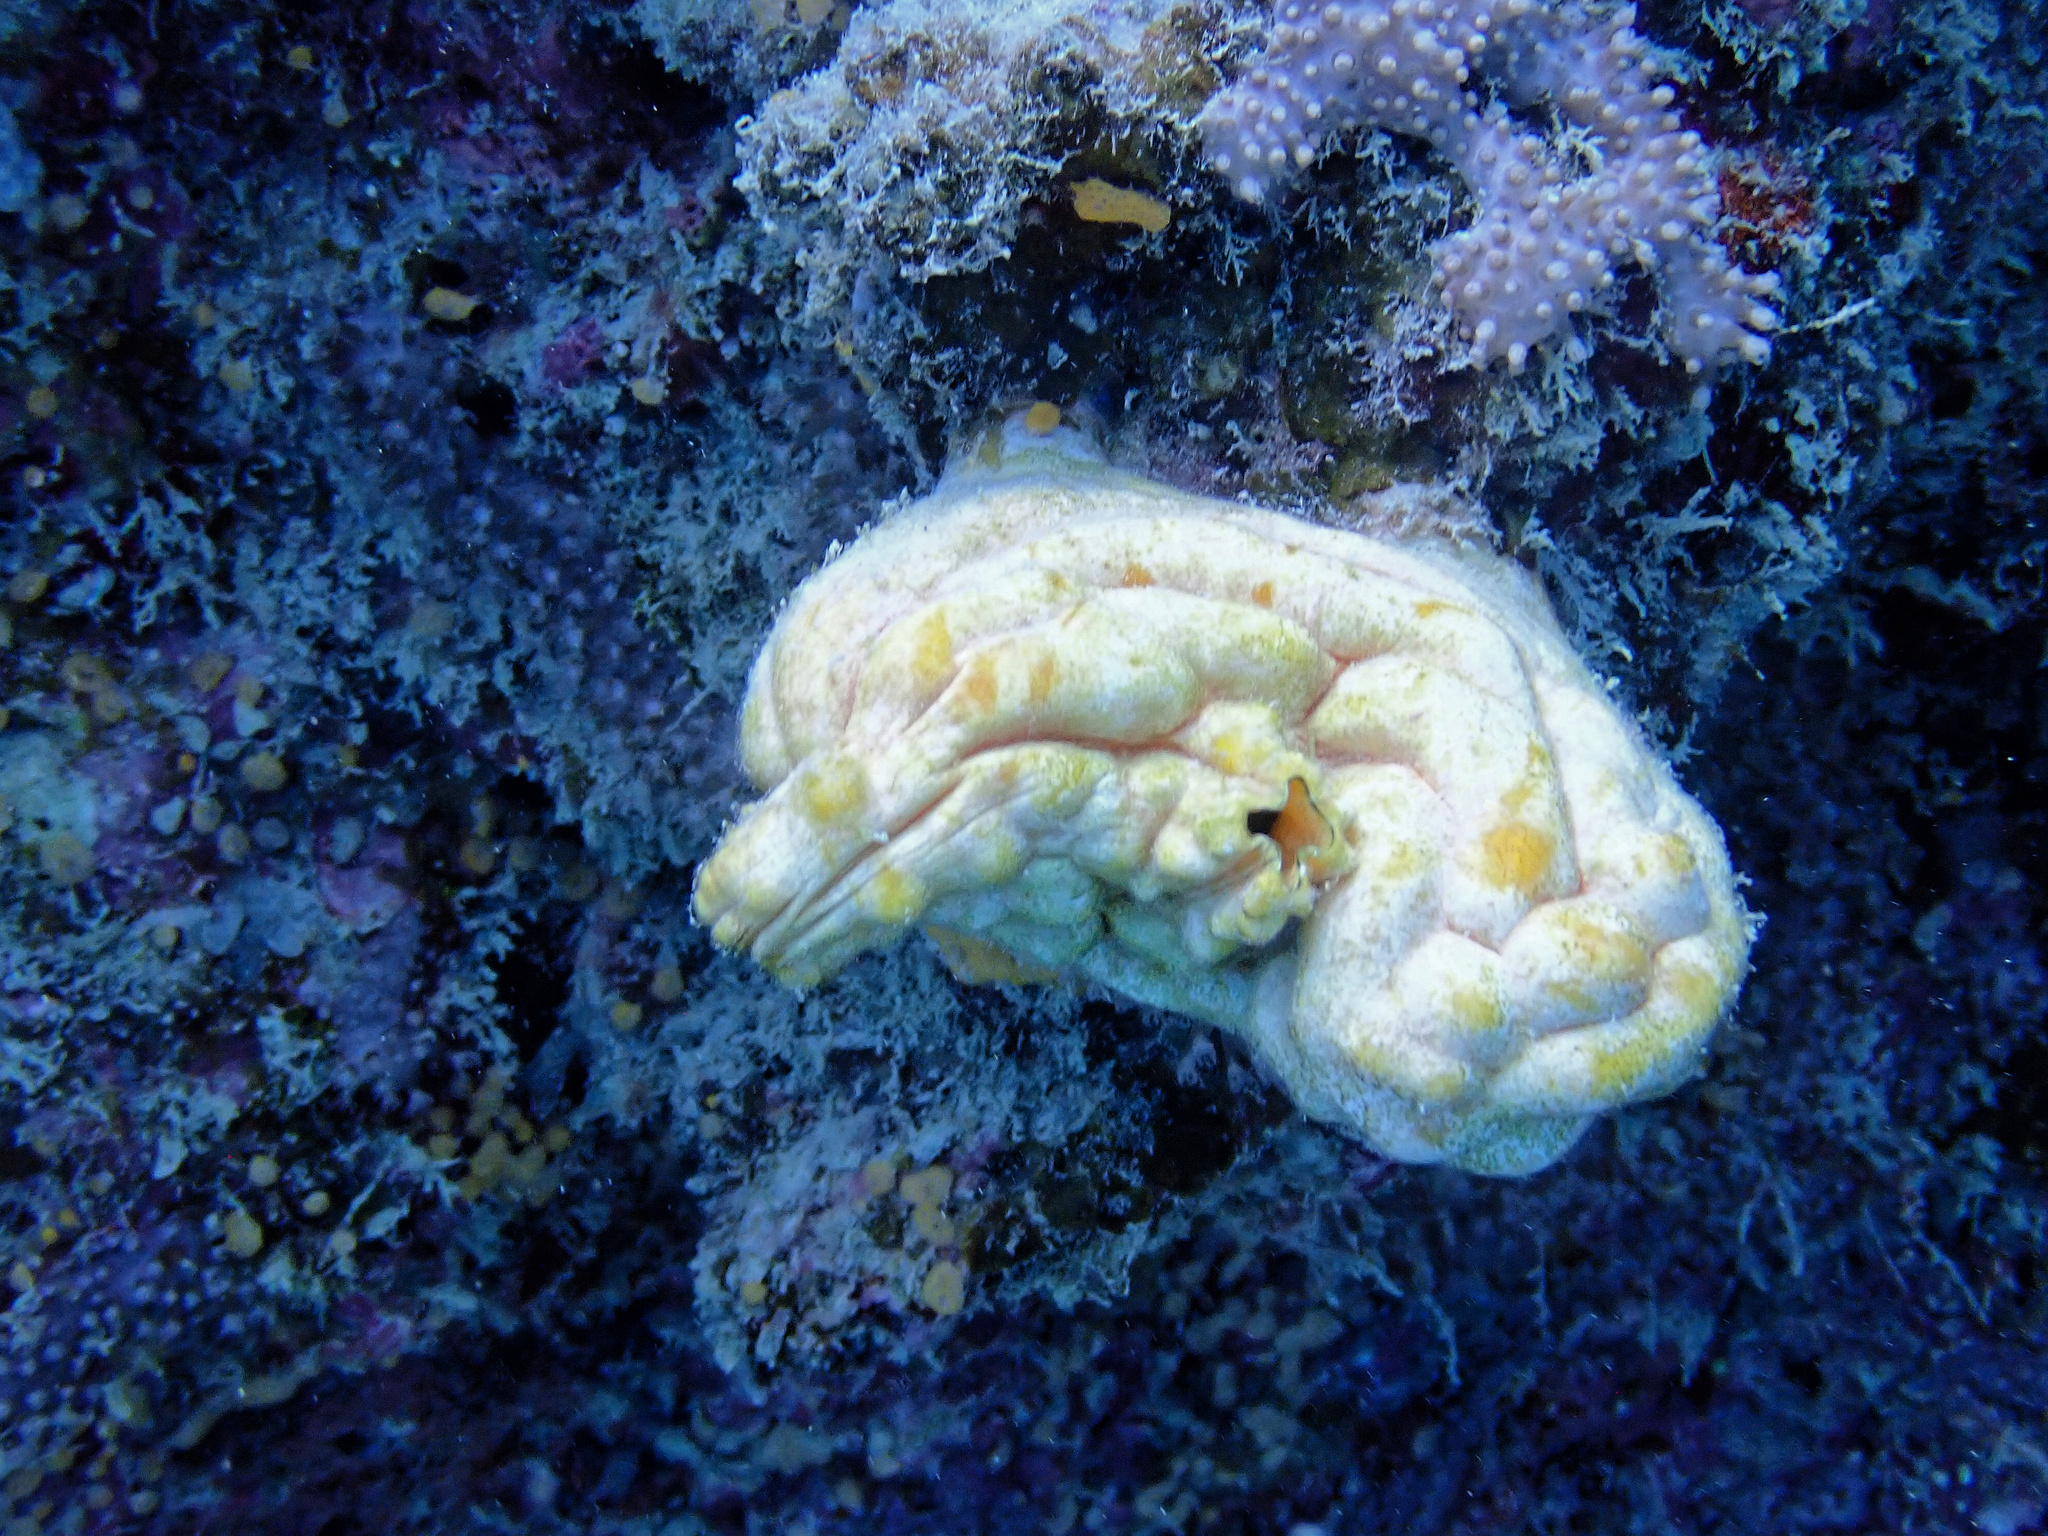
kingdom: Animalia
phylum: Chordata
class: Ascidiacea
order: Stolidobranchia
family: Styelidae
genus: Polycarpa
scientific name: Polycarpa aurata
